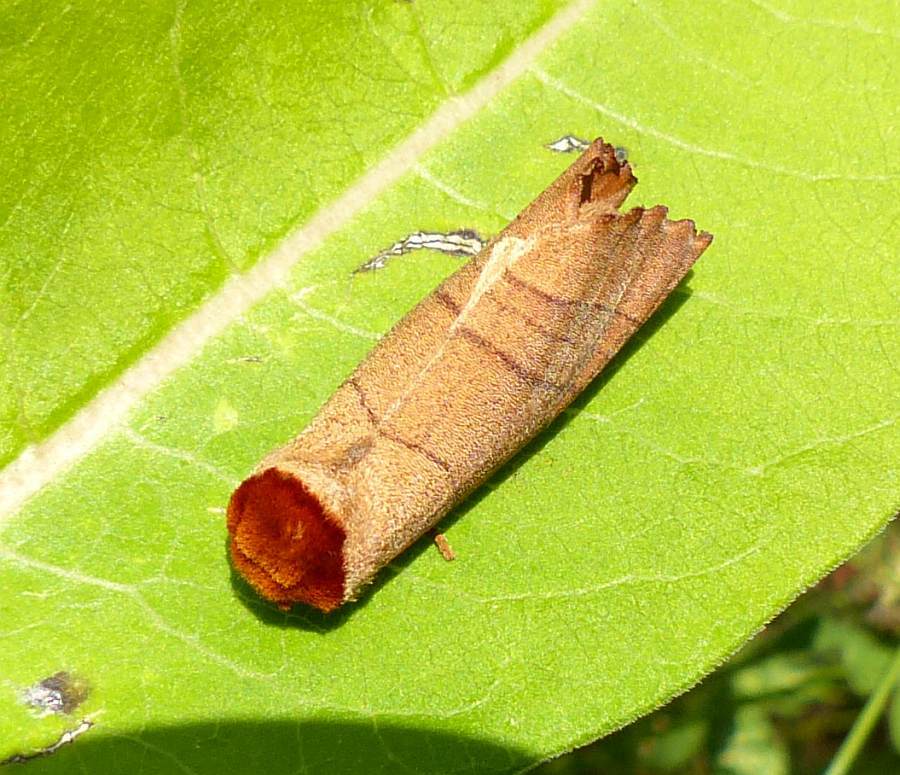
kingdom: Animalia
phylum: Arthropoda
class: Insecta
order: Lepidoptera
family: Notodontidae
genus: Datana
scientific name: Datana ministra
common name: Yellow-necked caterpillar moth
